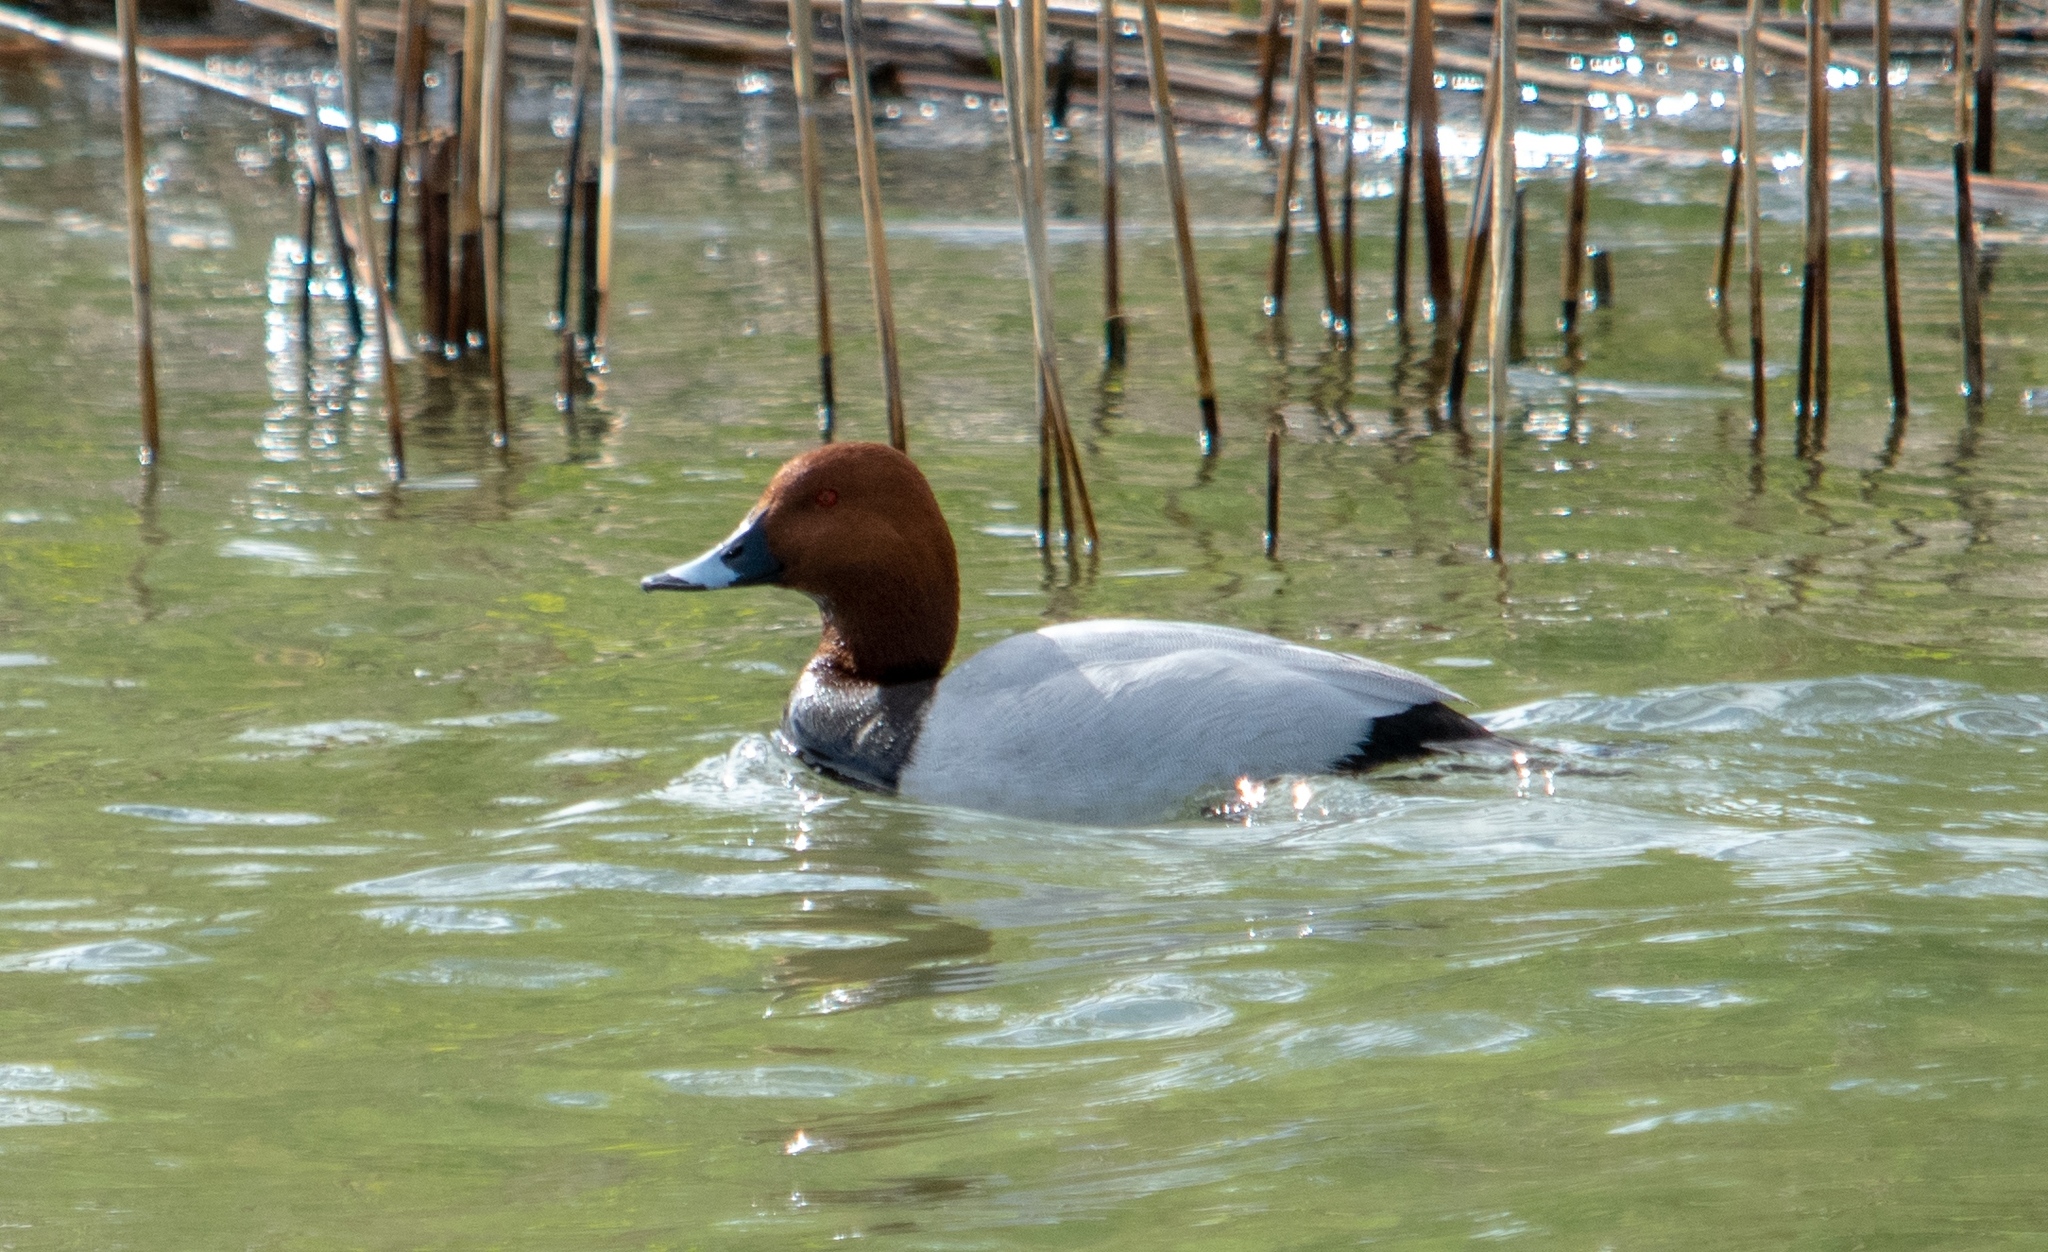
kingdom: Animalia
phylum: Chordata
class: Aves
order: Anseriformes
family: Anatidae
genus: Aythya
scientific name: Aythya ferina
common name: Common pochard
